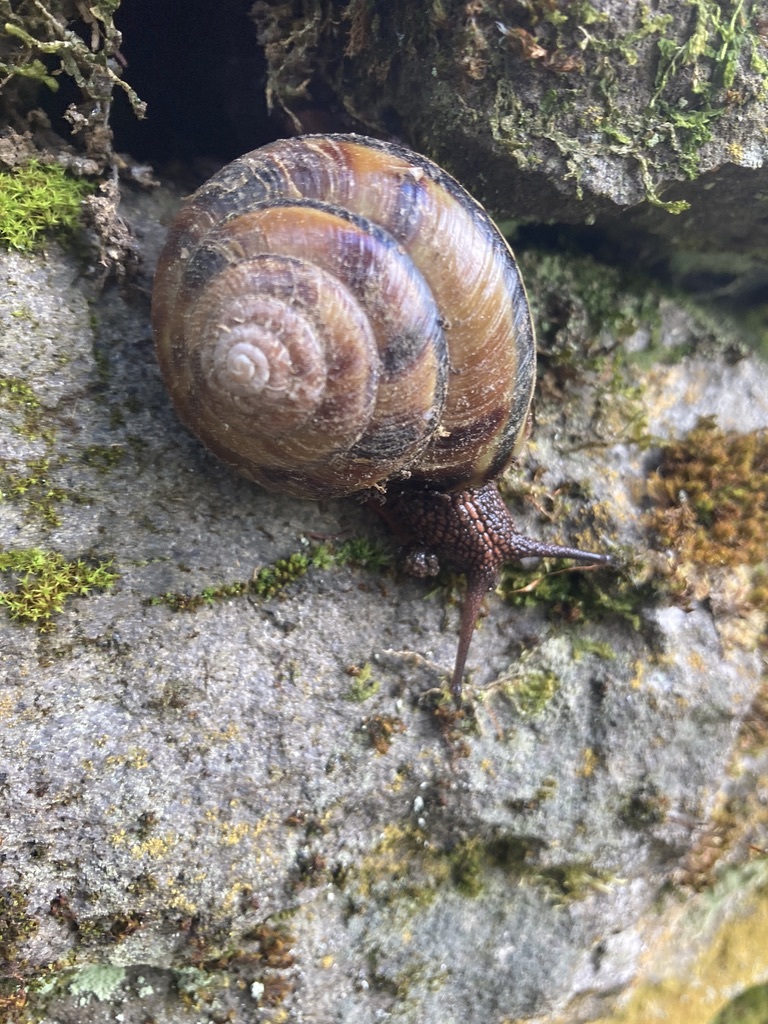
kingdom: Animalia
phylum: Mollusca
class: Gastropoda
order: Stylommatophora
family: Xanthonychidae
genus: Monadenia
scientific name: Monadenia fidelis
